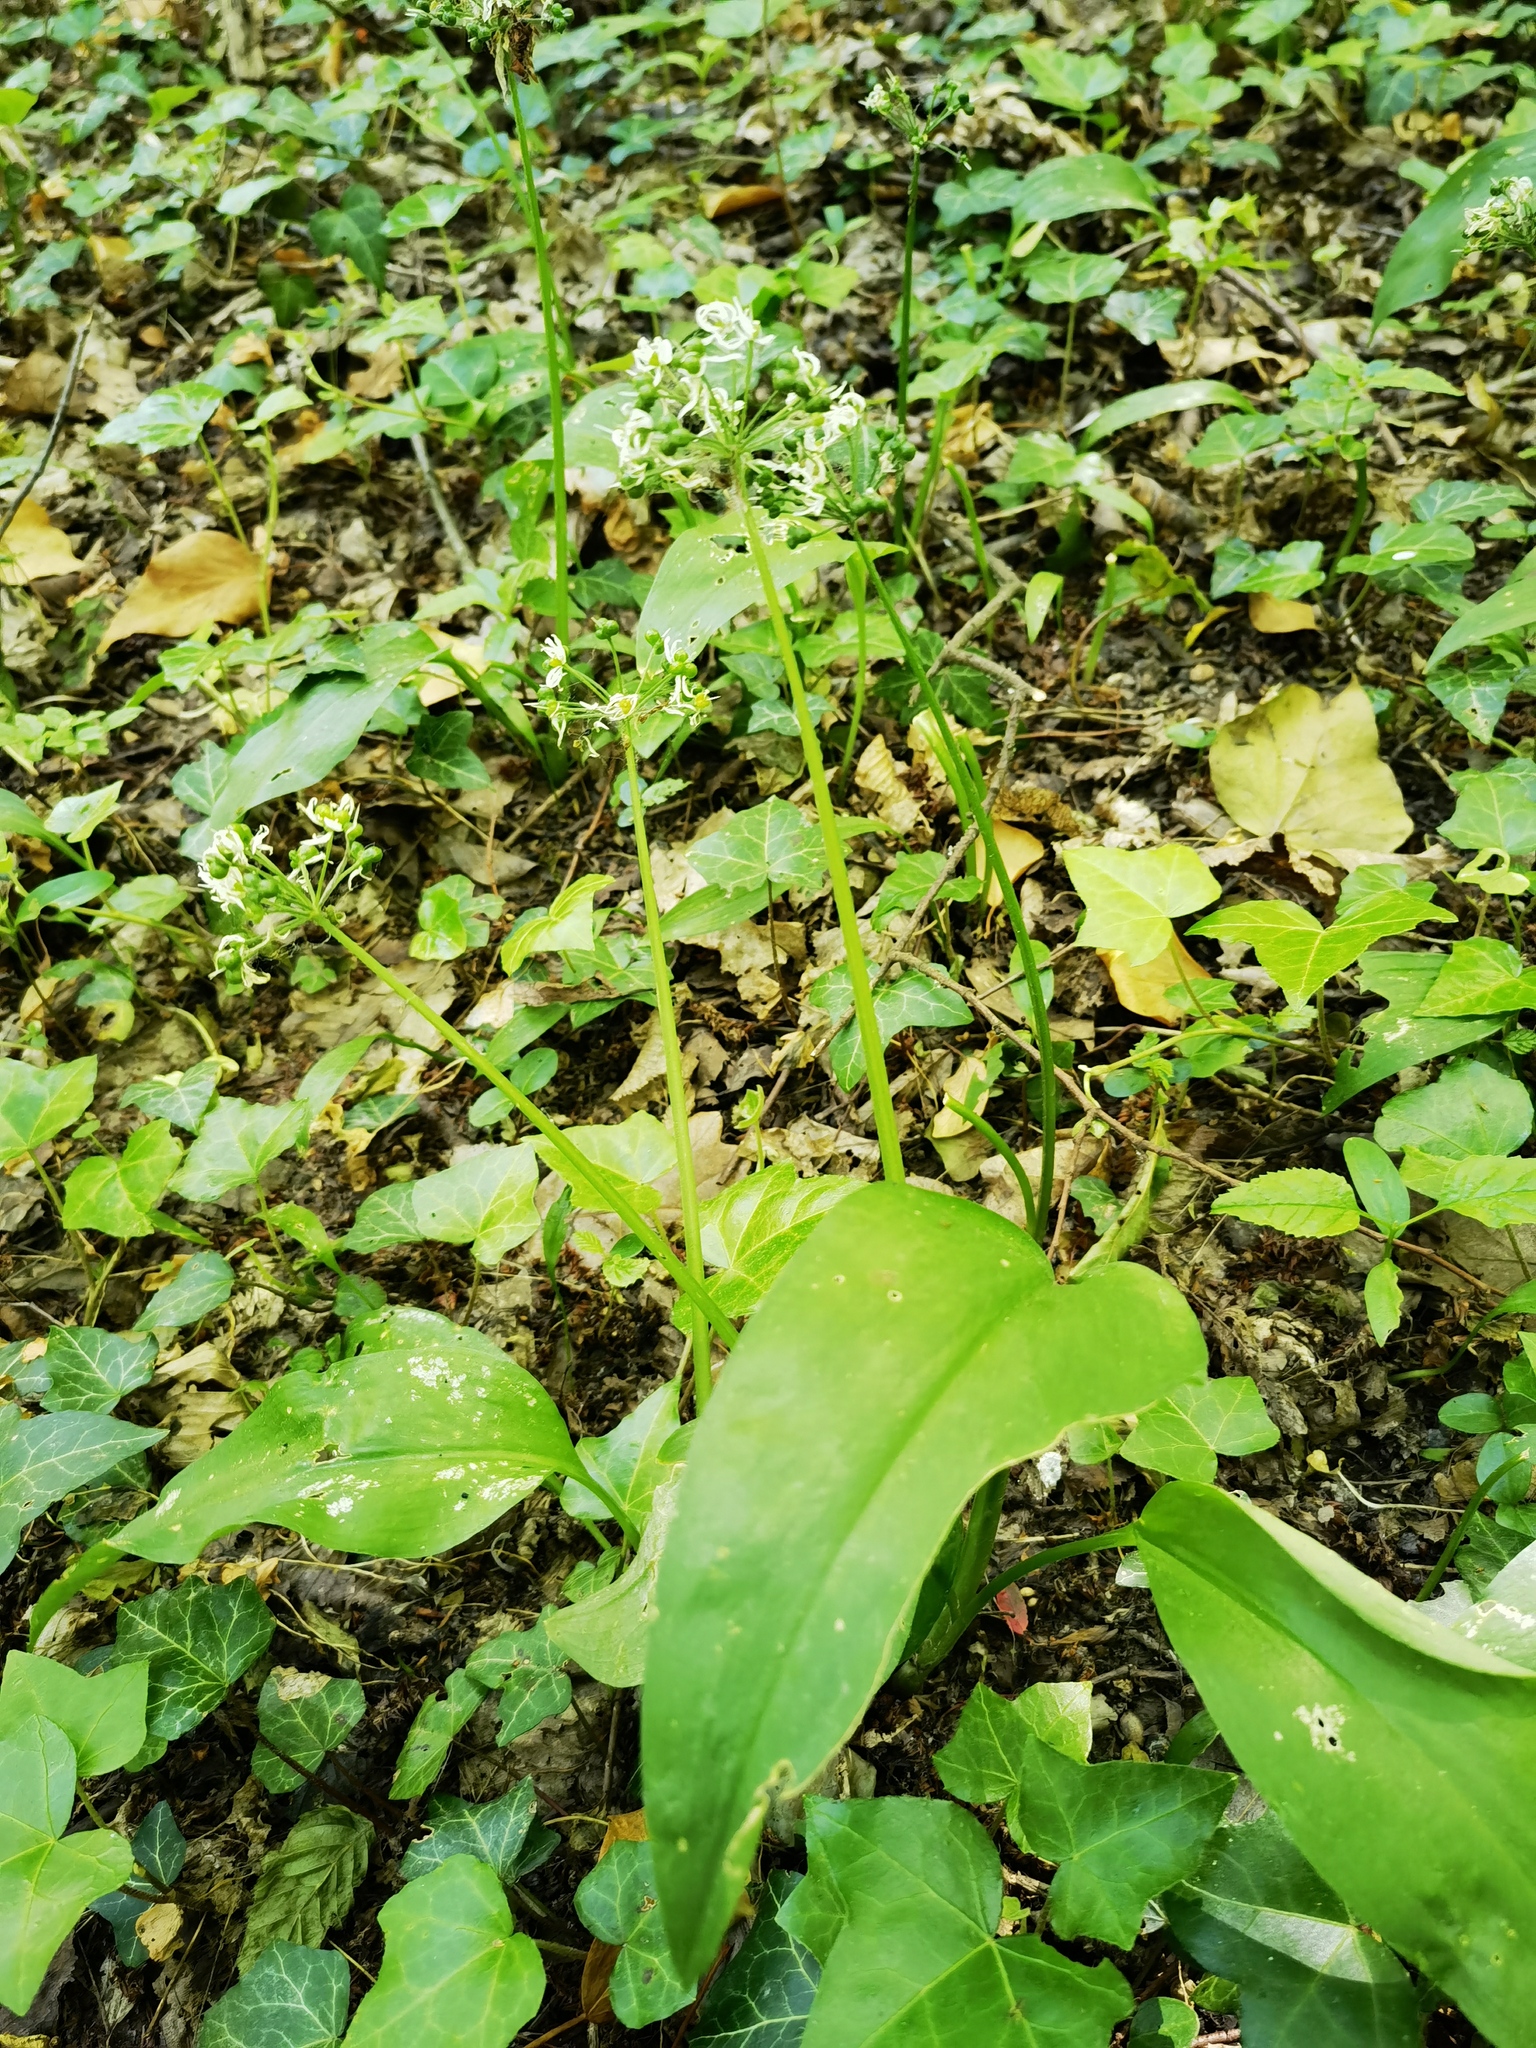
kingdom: Plantae
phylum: Tracheophyta
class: Liliopsida
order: Asparagales
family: Amaryllidaceae
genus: Allium
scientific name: Allium ursinum
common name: Ramsons
